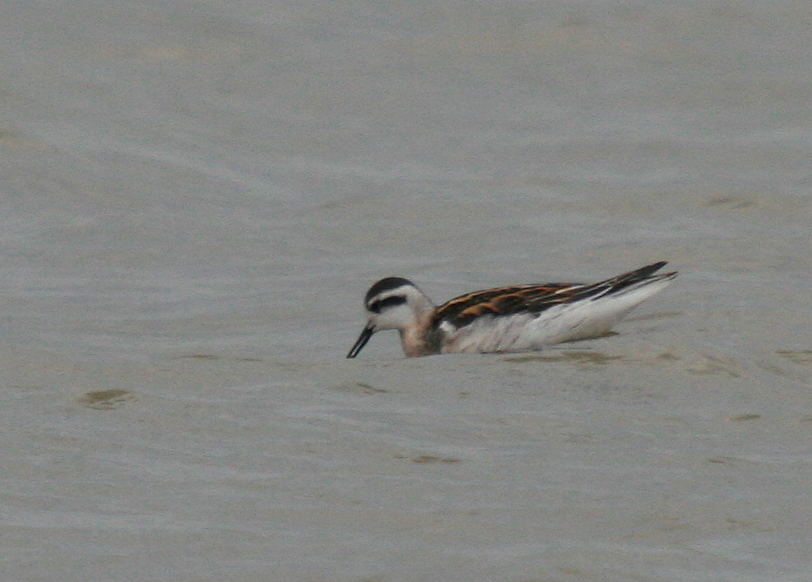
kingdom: Animalia
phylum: Chordata
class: Aves
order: Charadriiformes
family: Scolopacidae
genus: Phalaropus
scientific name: Phalaropus lobatus
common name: Red-necked phalarope
